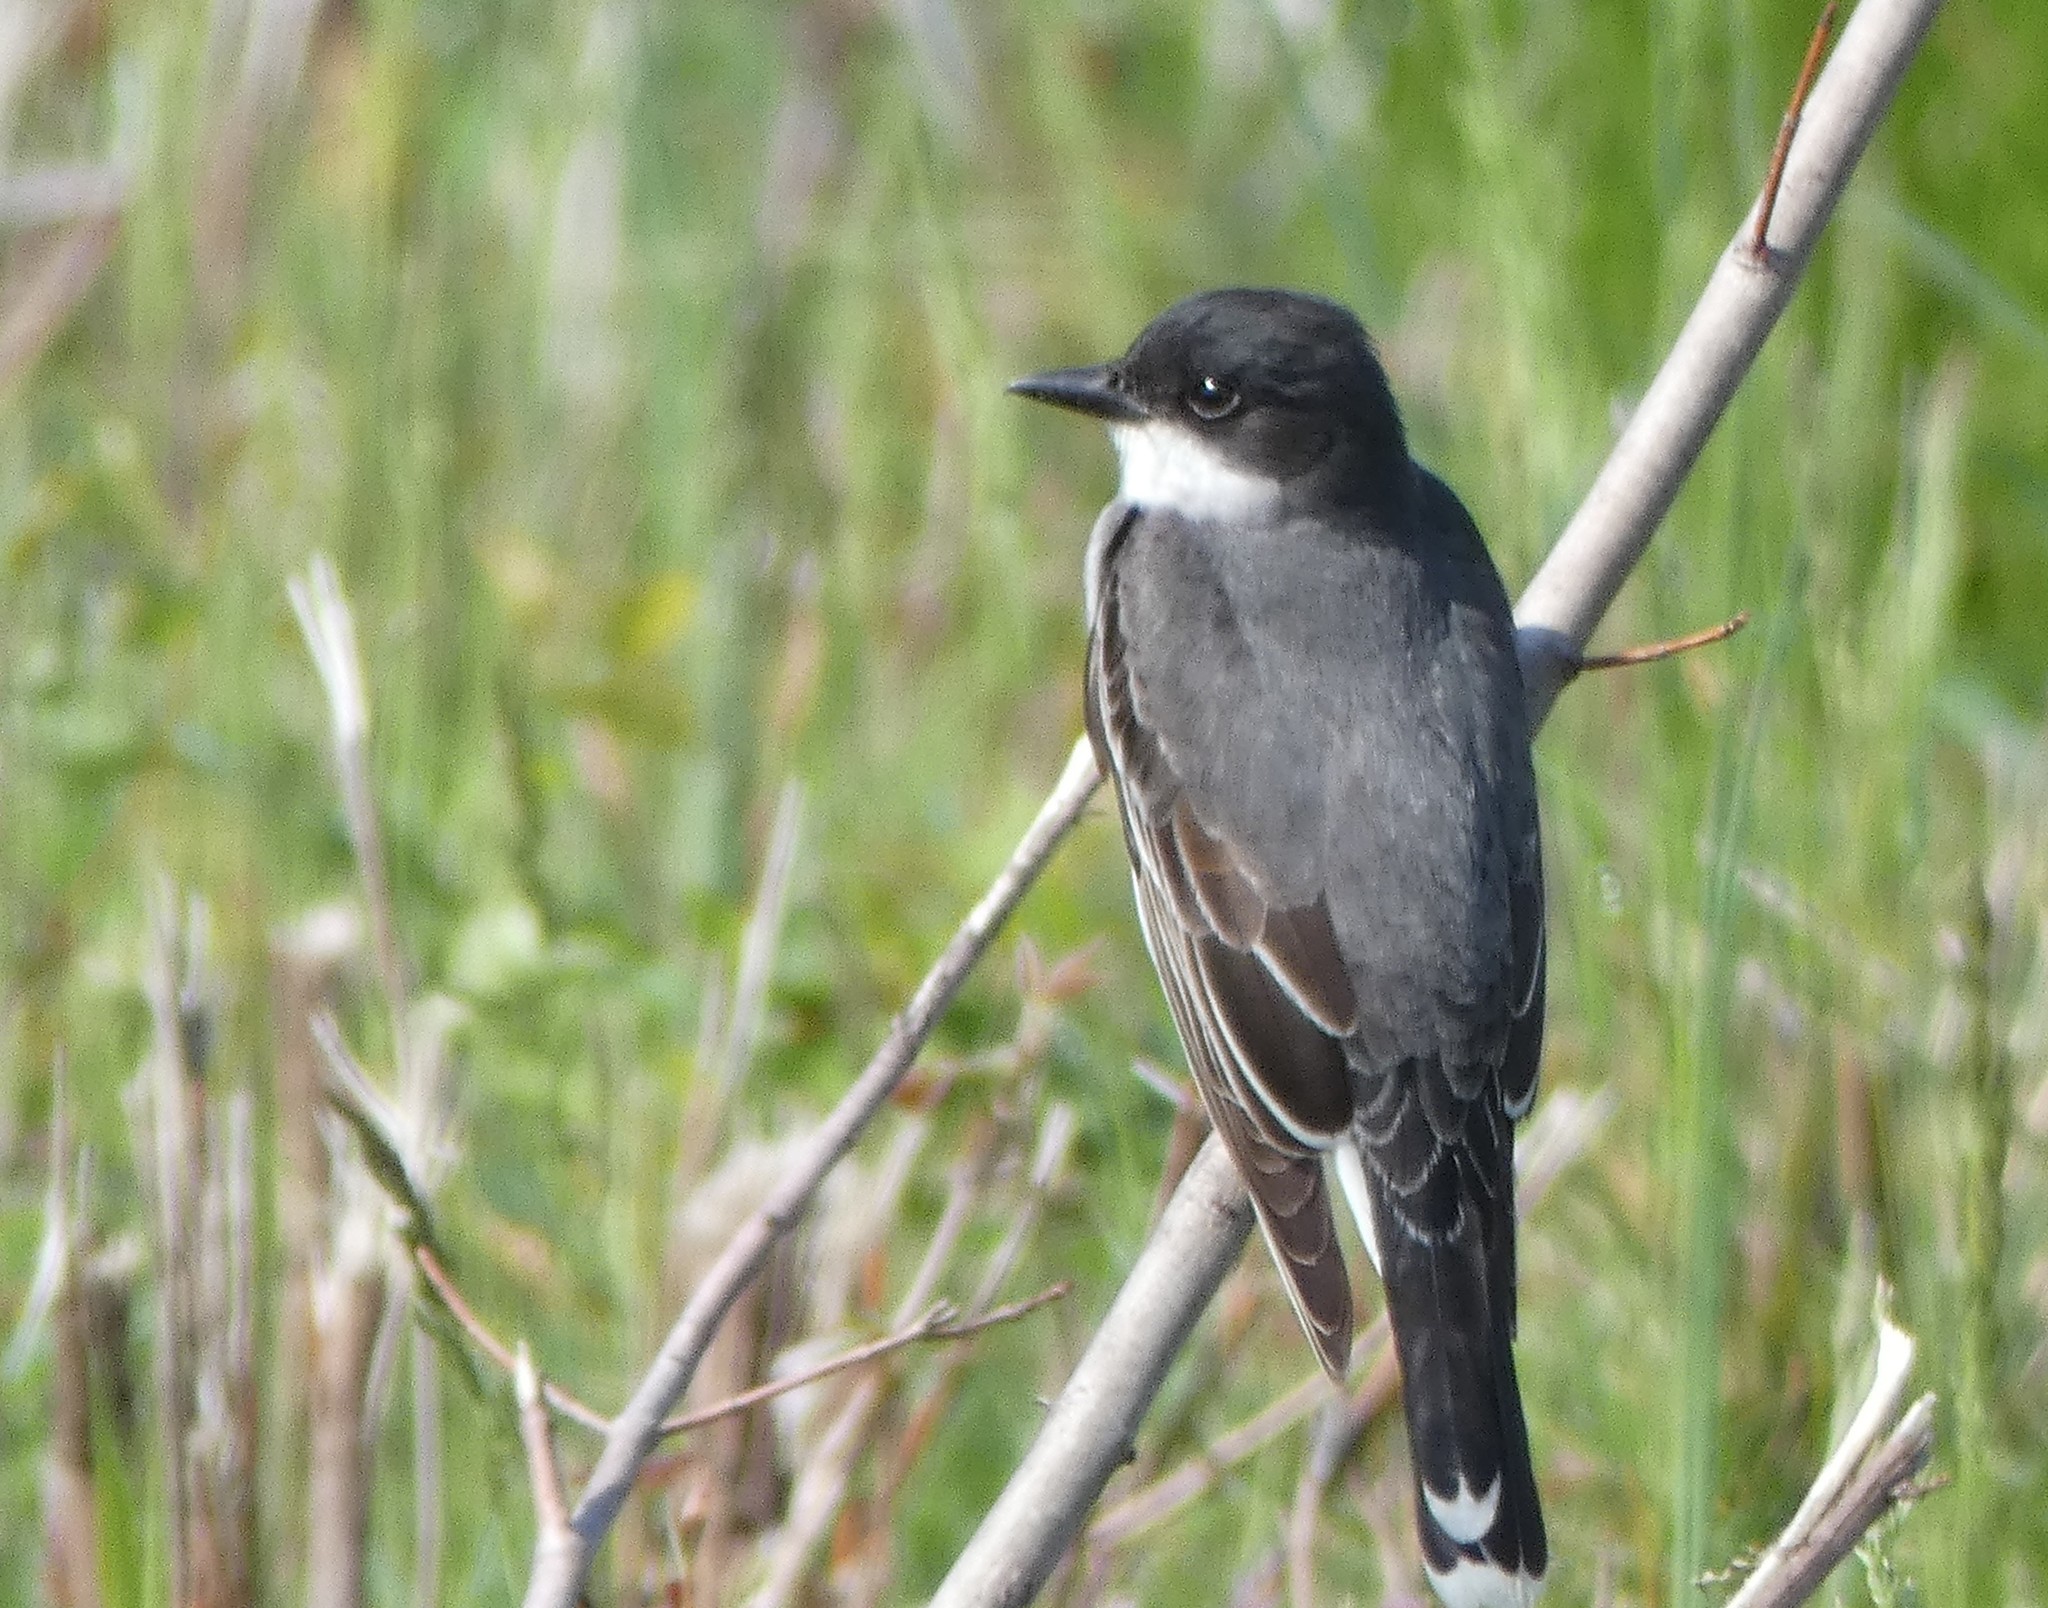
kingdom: Animalia
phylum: Chordata
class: Aves
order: Passeriformes
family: Tyrannidae
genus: Tyrannus
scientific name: Tyrannus tyrannus
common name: Eastern kingbird
